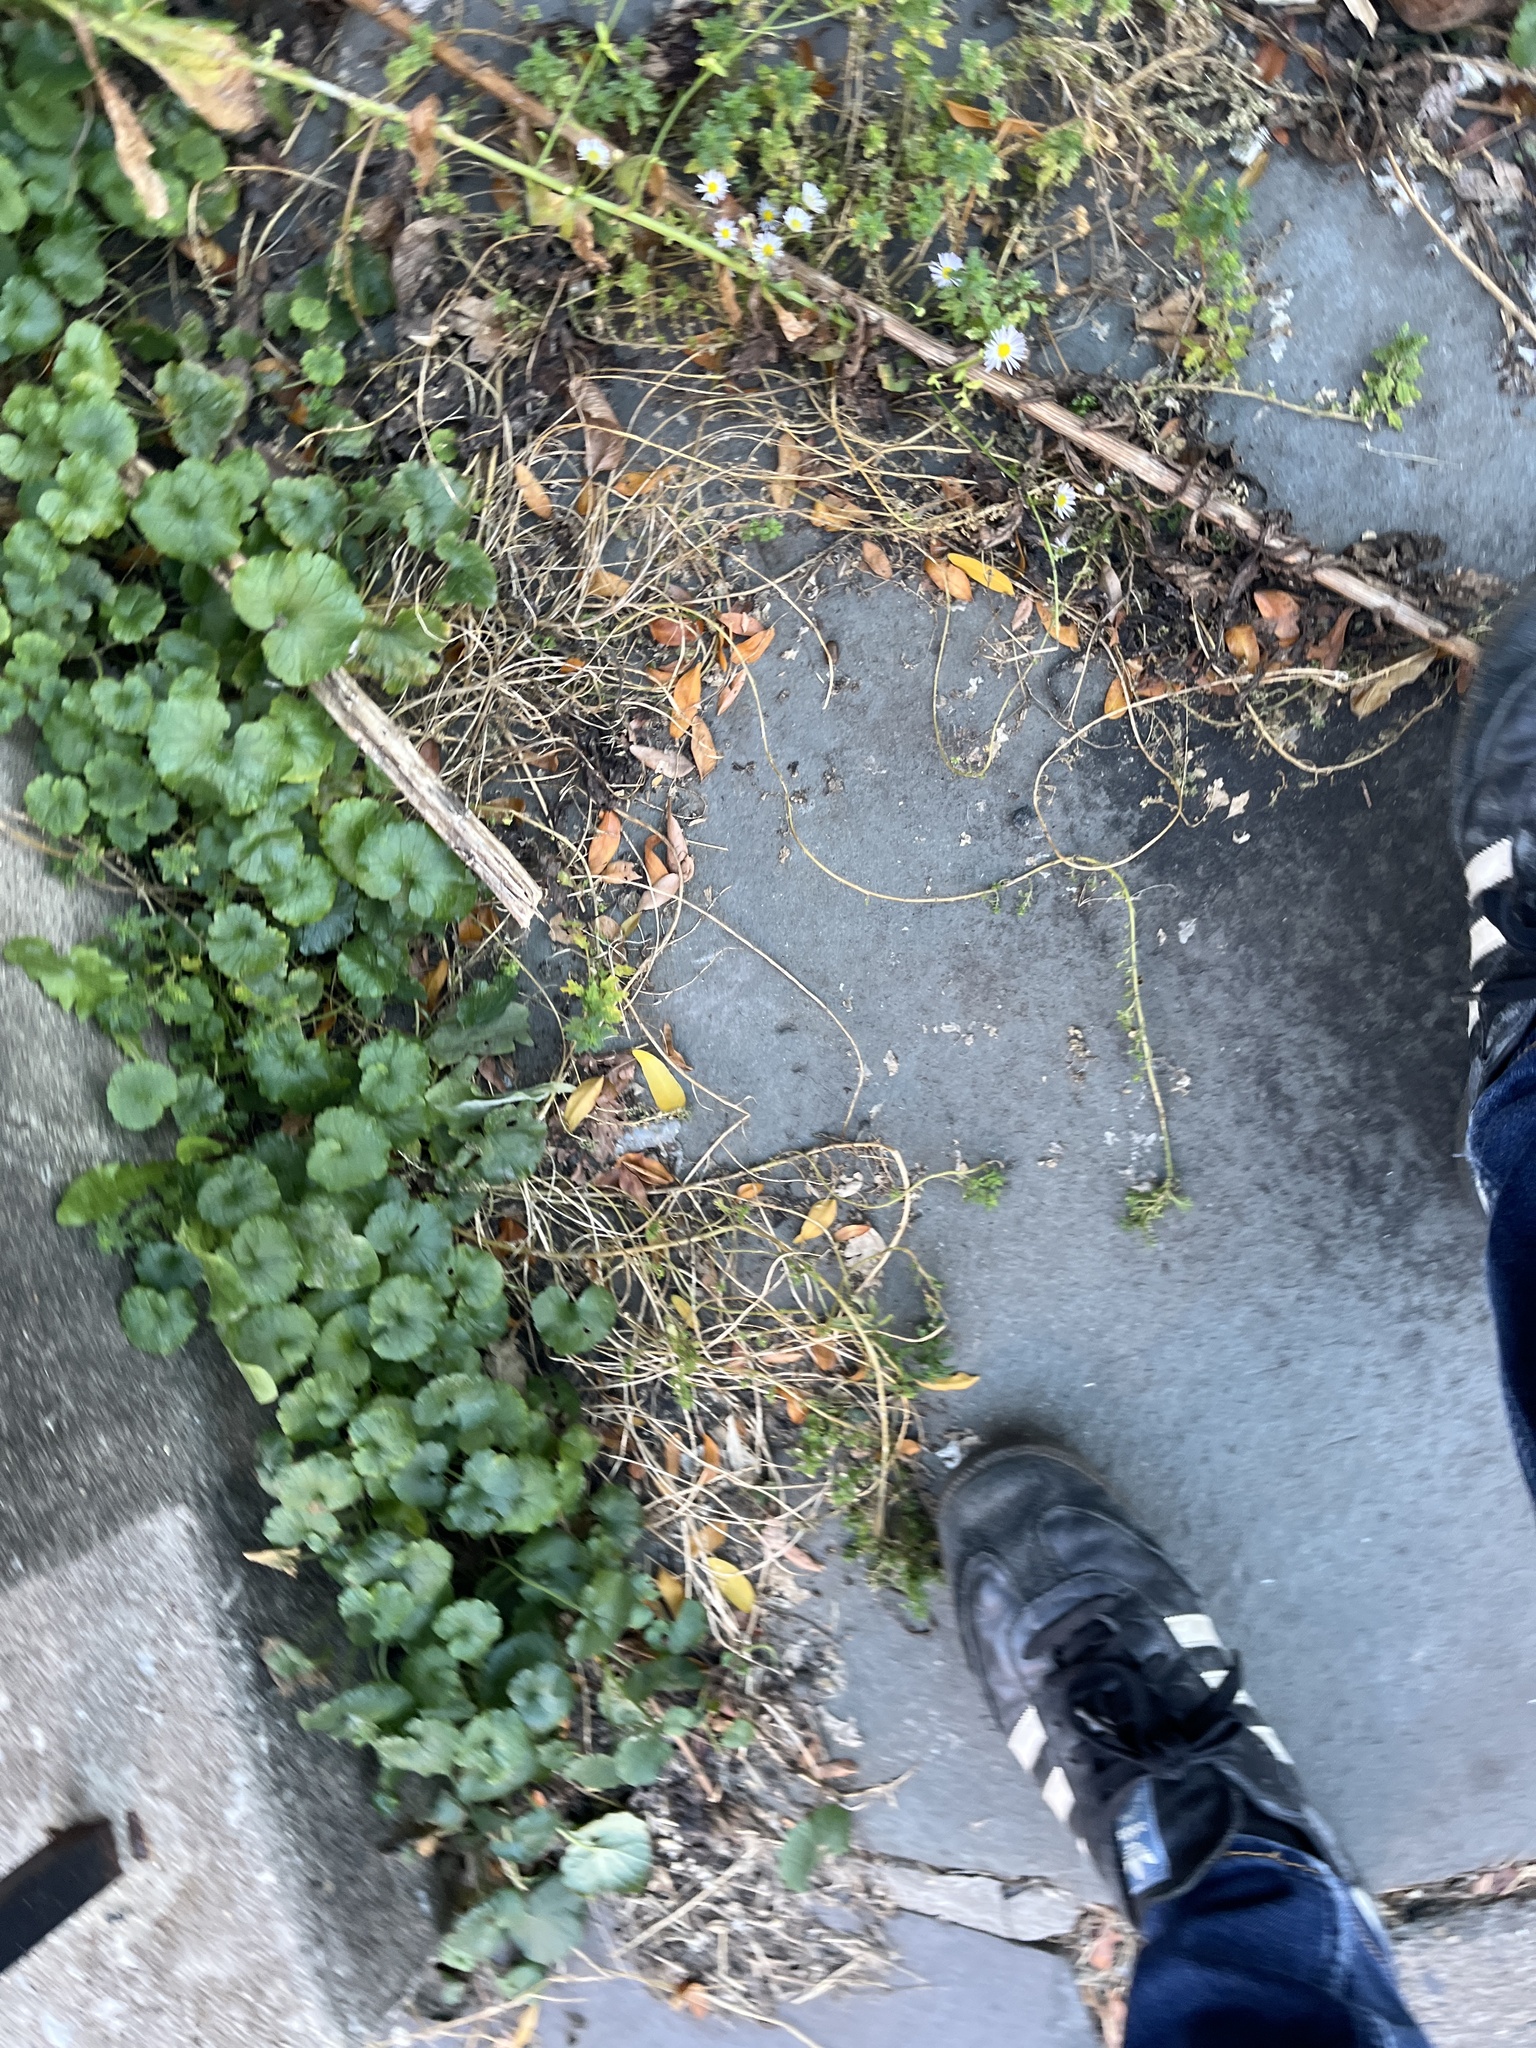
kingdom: Plantae
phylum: Tracheophyta
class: Magnoliopsida
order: Lamiales
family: Lamiaceae
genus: Glechoma
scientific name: Glechoma hederacea
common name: Ground ivy
